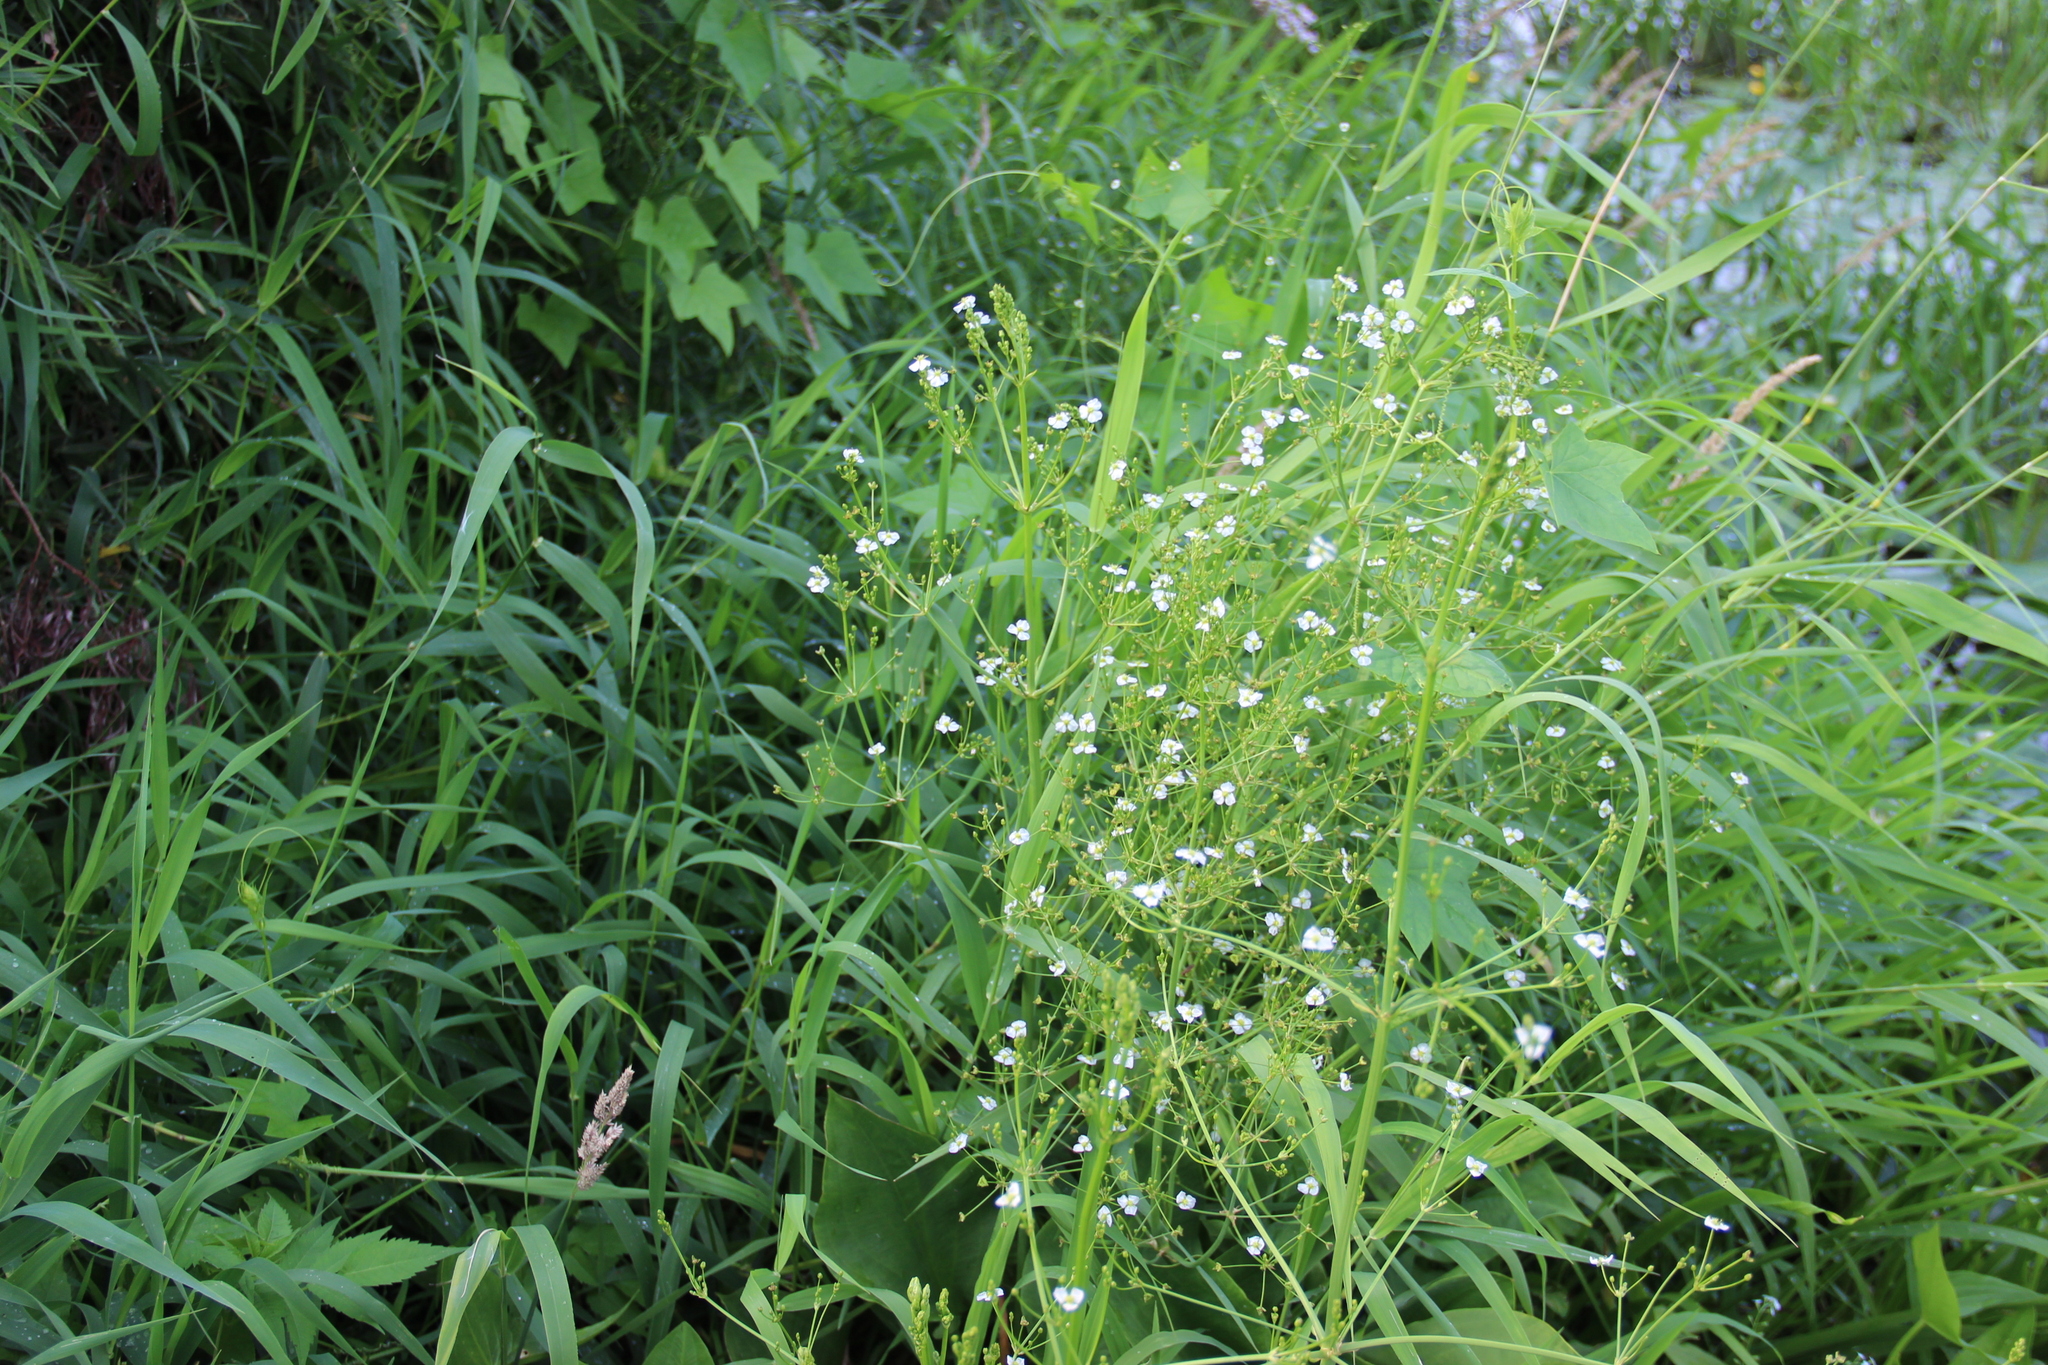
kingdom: Plantae
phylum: Tracheophyta
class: Liliopsida
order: Alismatales
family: Alismataceae
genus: Alisma
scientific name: Alisma plantago-aquatica
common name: Water-plantain
